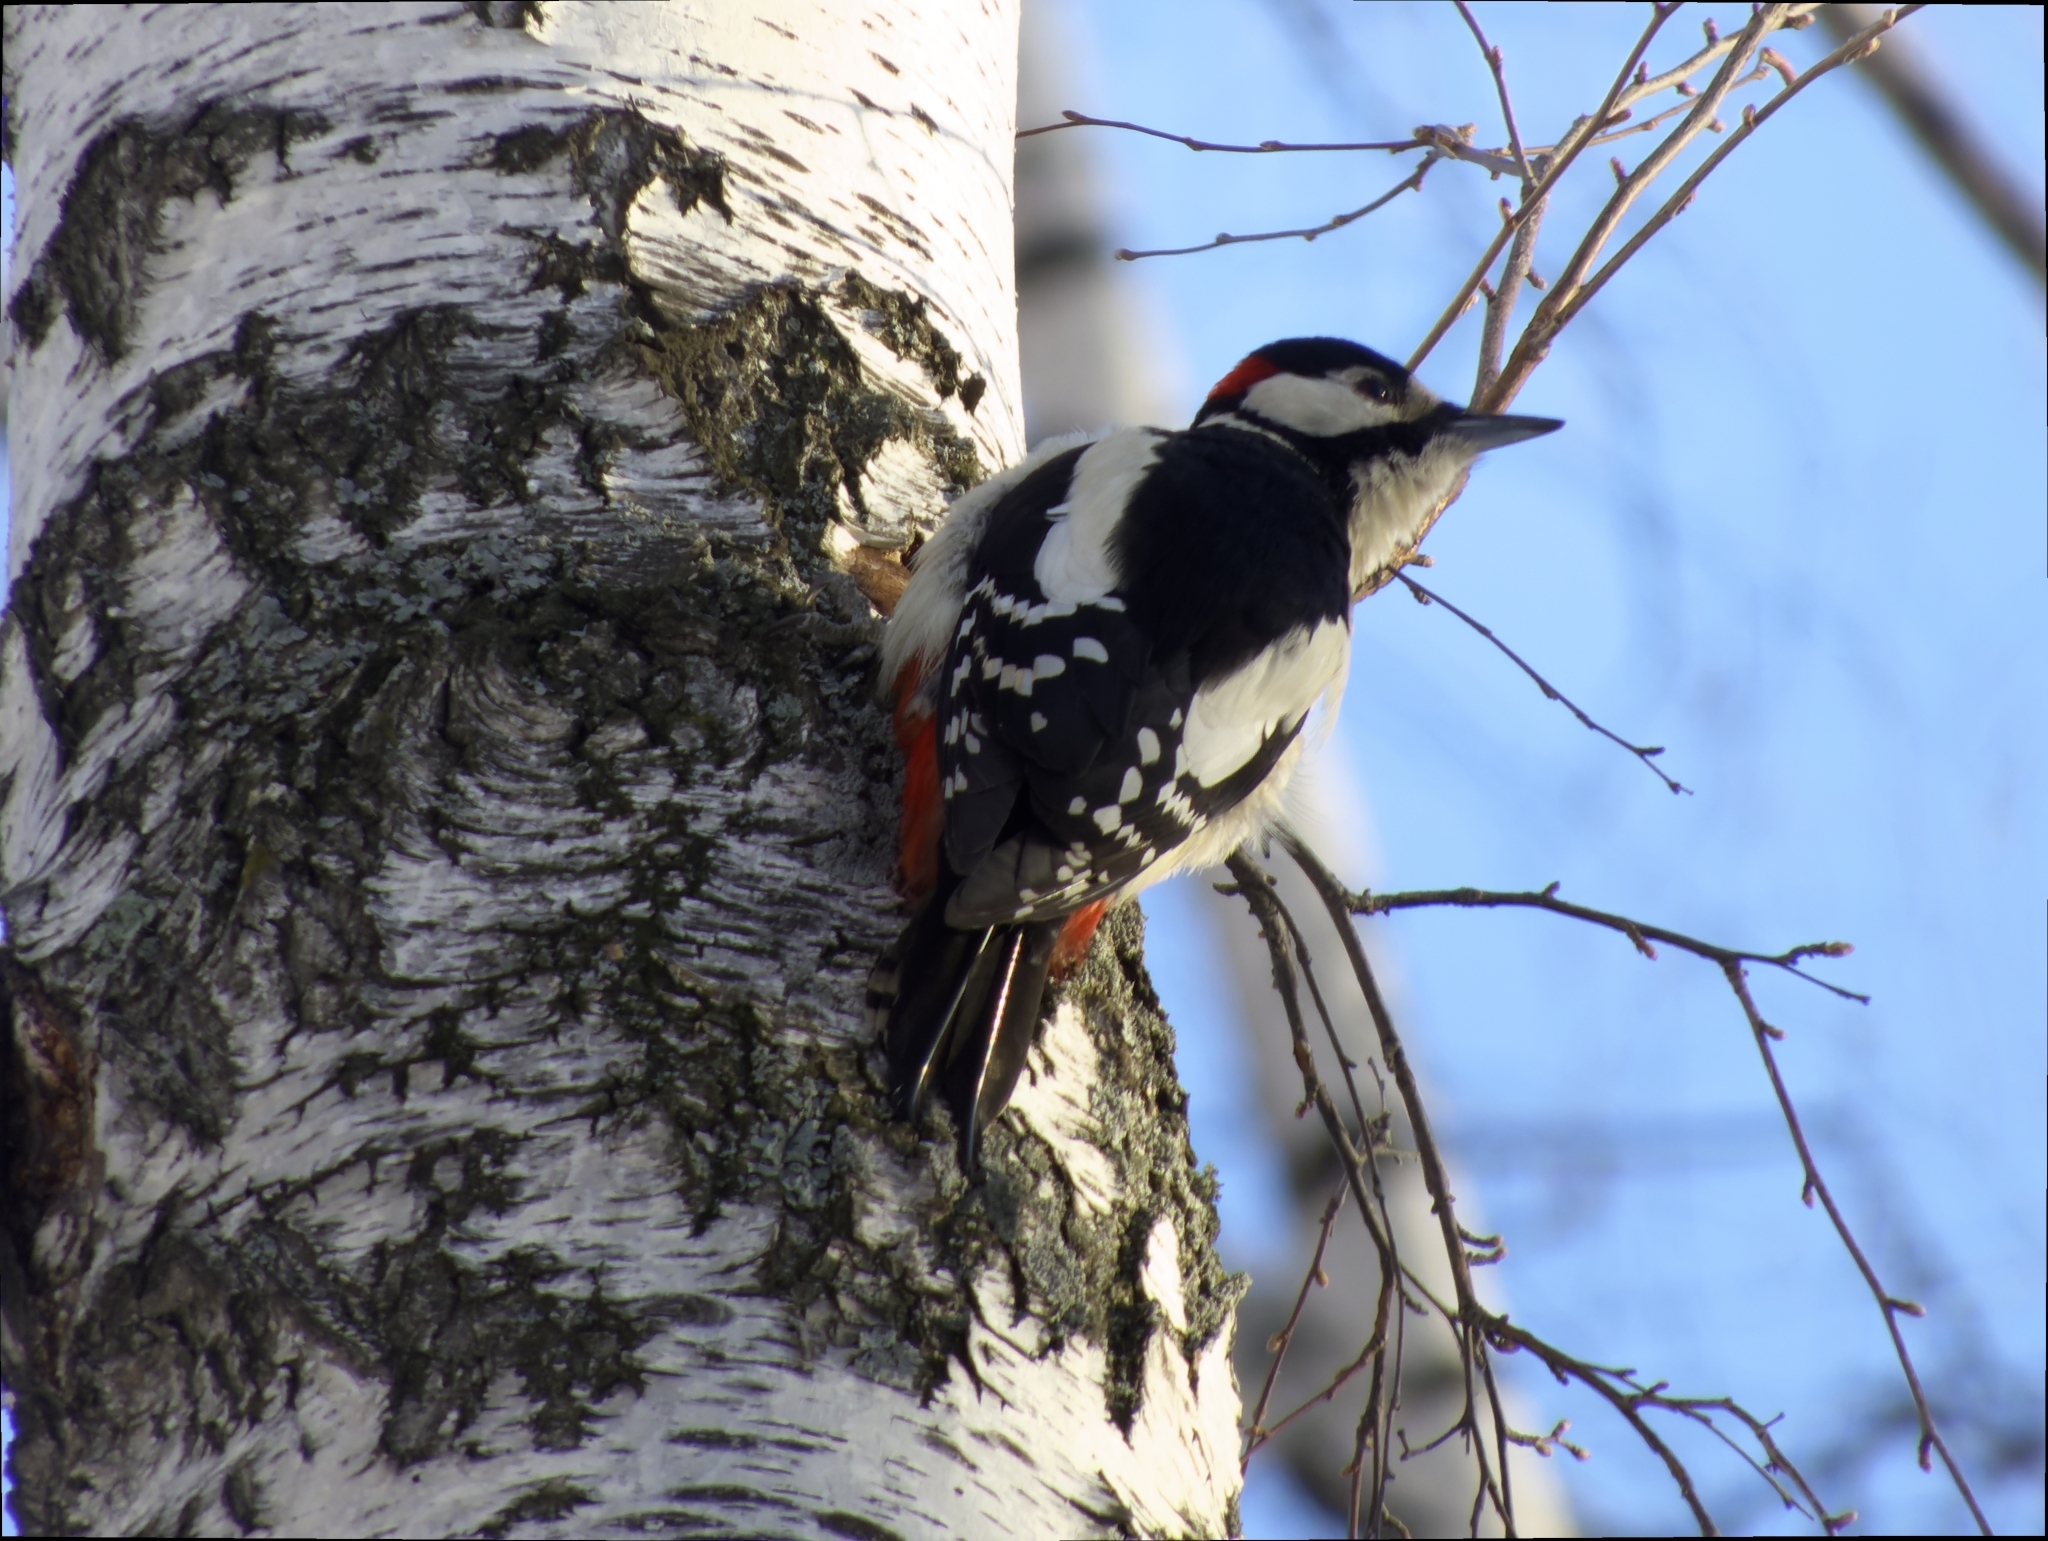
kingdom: Animalia
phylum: Chordata
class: Aves
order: Piciformes
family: Picidae
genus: Dendrocopos
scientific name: Dendrocopos major
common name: Great spotted woodpecker
